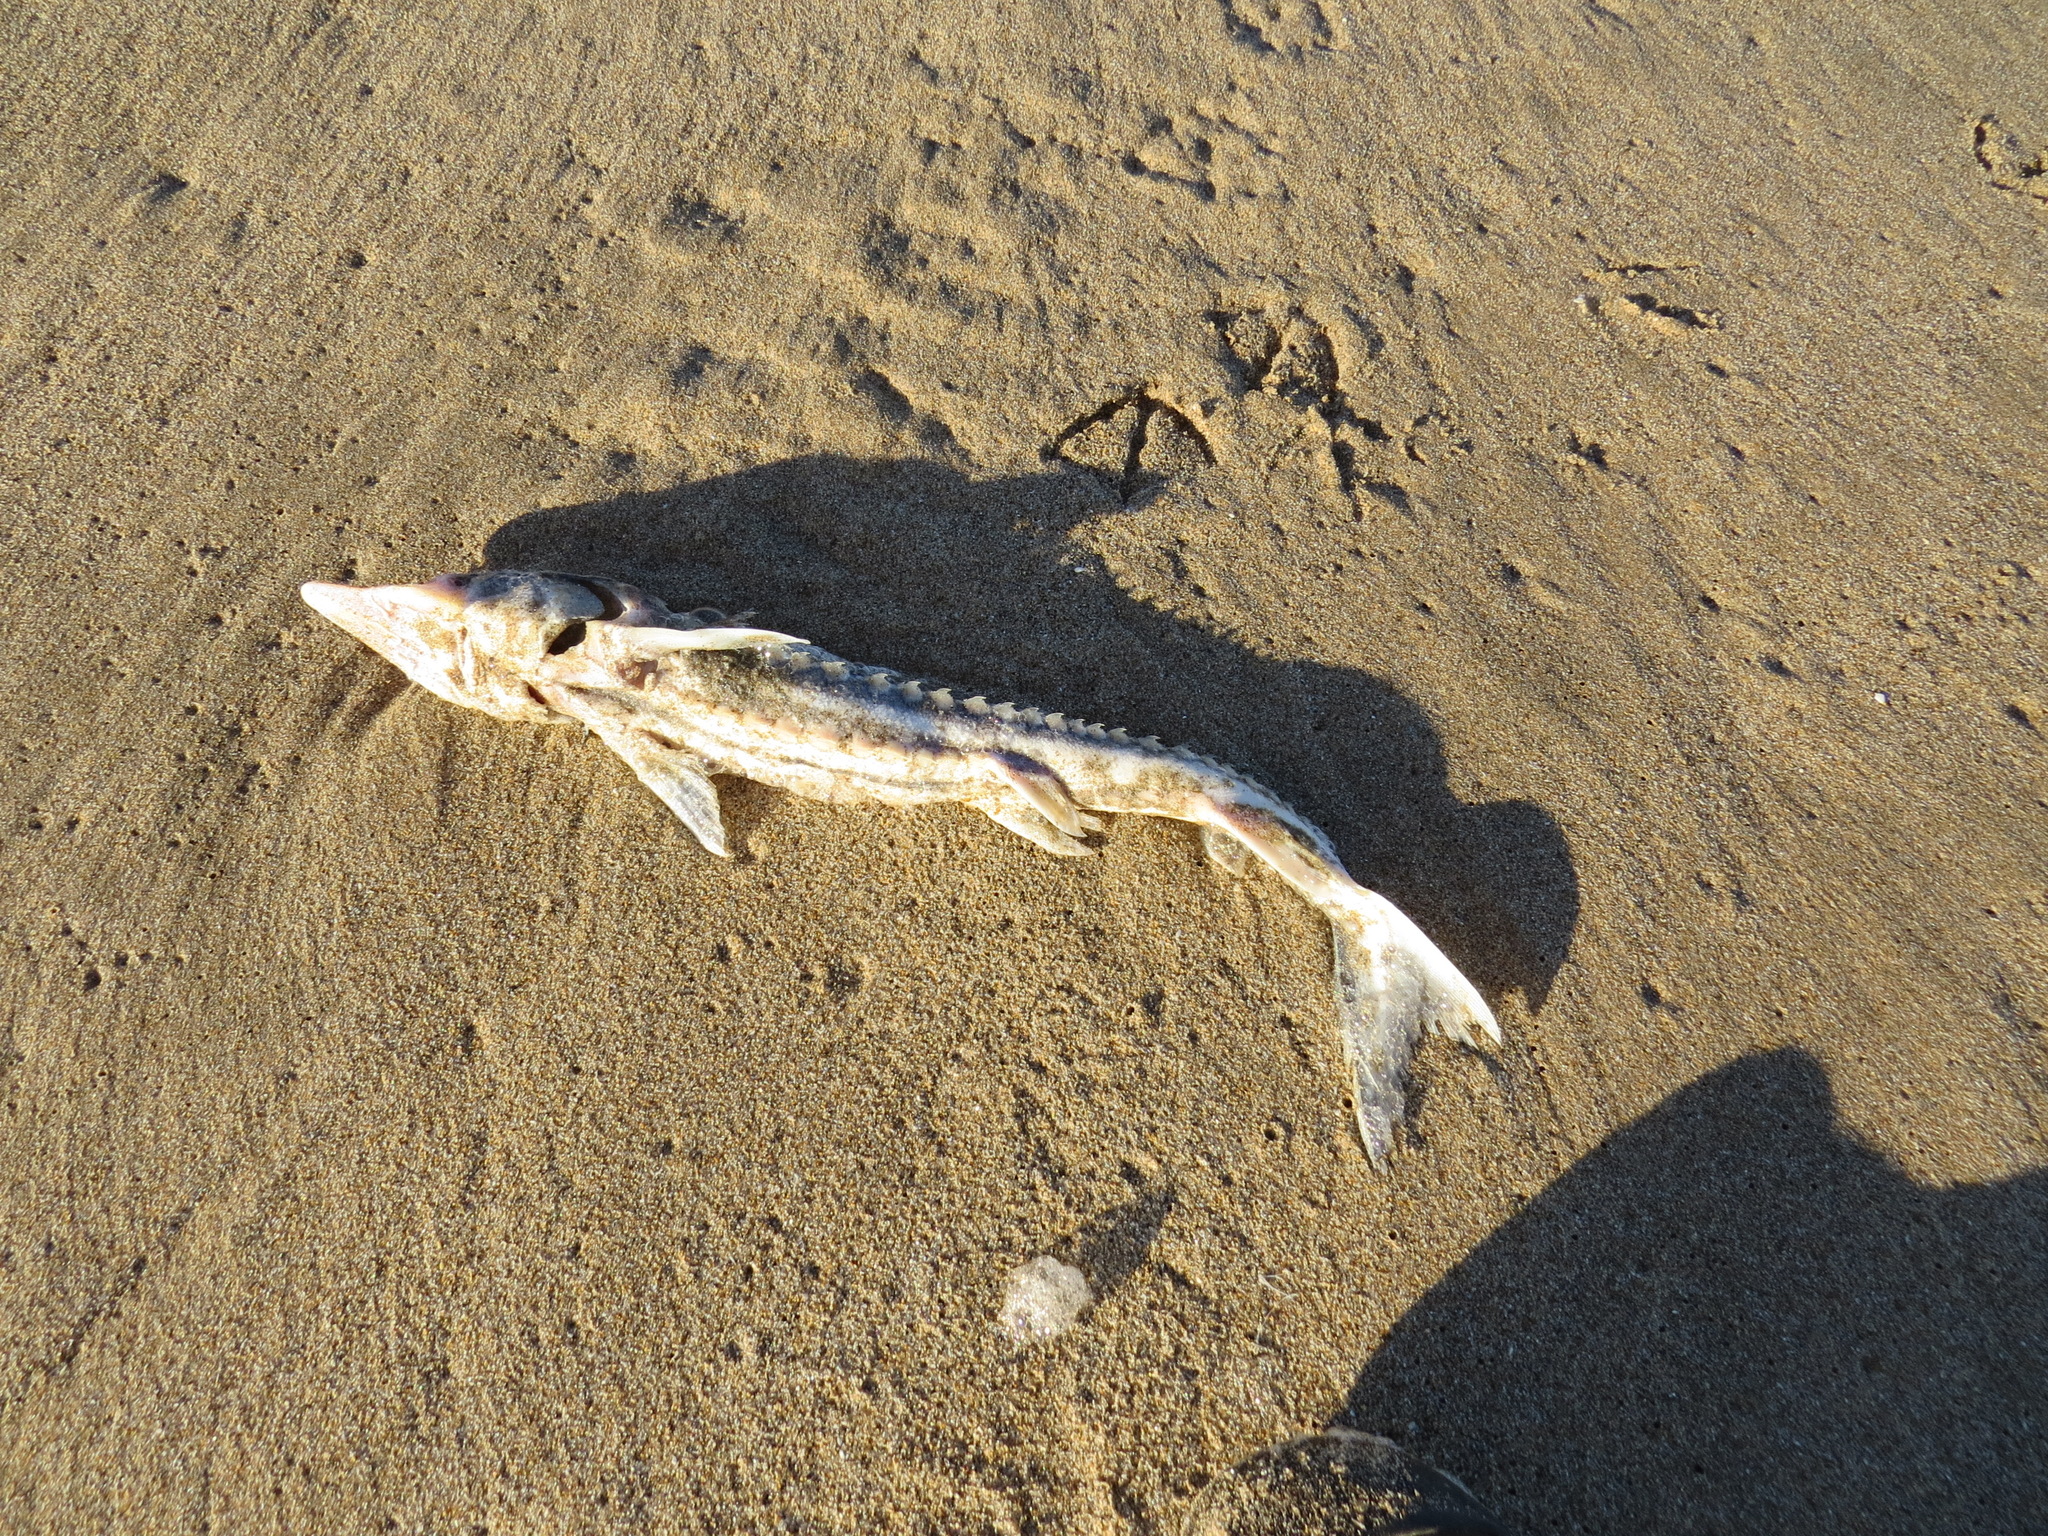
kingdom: Animalia
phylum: Chordata
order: Acipenseriformes
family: Acipenseridae
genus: Acipenser
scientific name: Acipenser medirostris
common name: Green sturgeon
